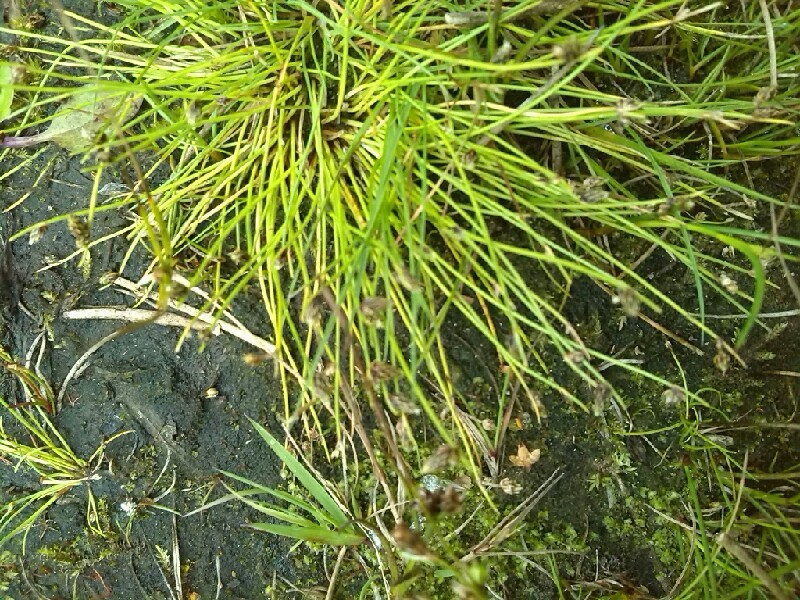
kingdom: Plantae
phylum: Tracheophyta
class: Liliopsida
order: Poales
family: Cyperaceae
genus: Isolepis
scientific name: Isolepis setacea
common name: Bristle club-rush
